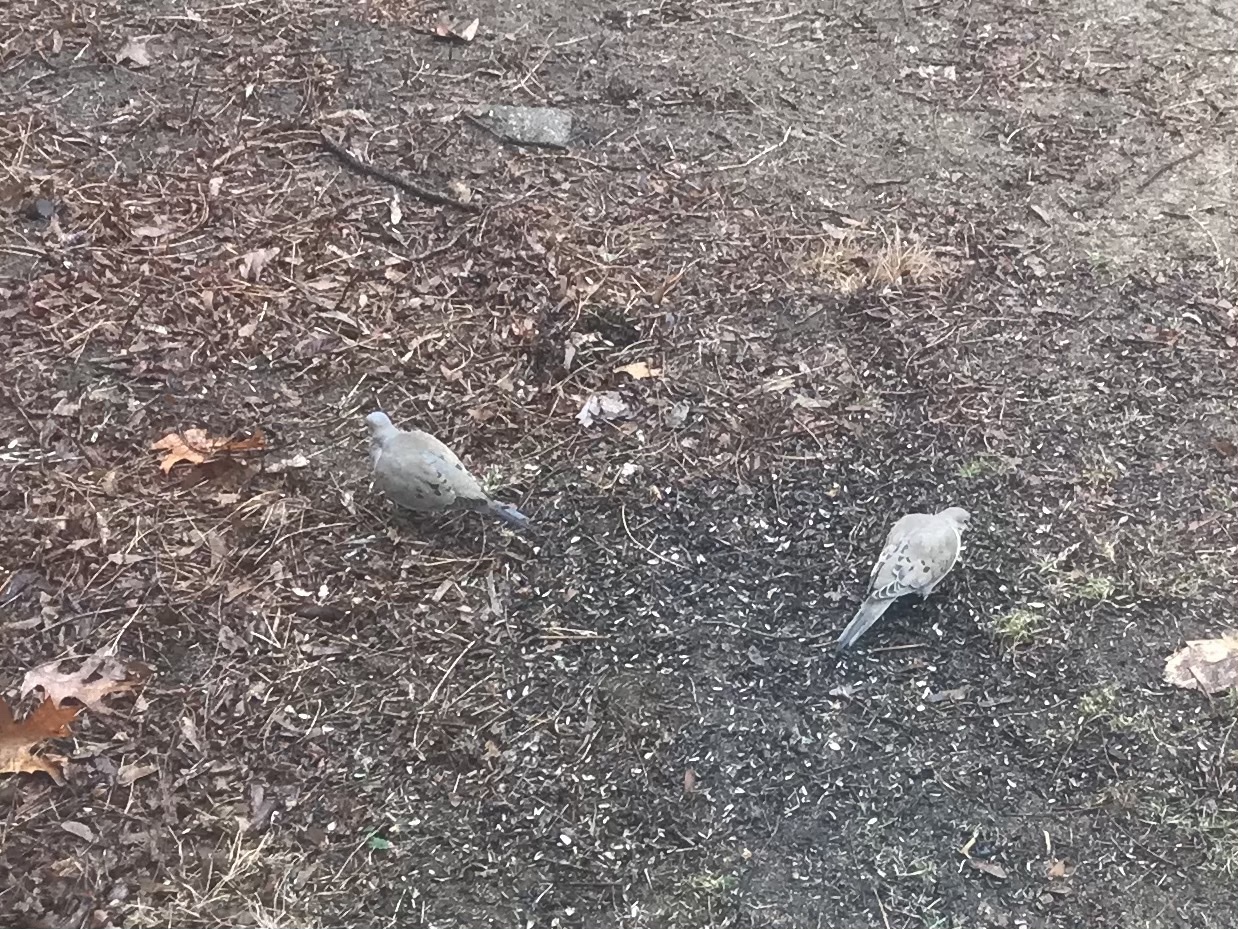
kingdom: Animalia
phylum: Chordata
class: Aves
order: Columbiformes
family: Columbidae
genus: Zenaida
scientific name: Zenaida macroura
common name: Mourning dove
